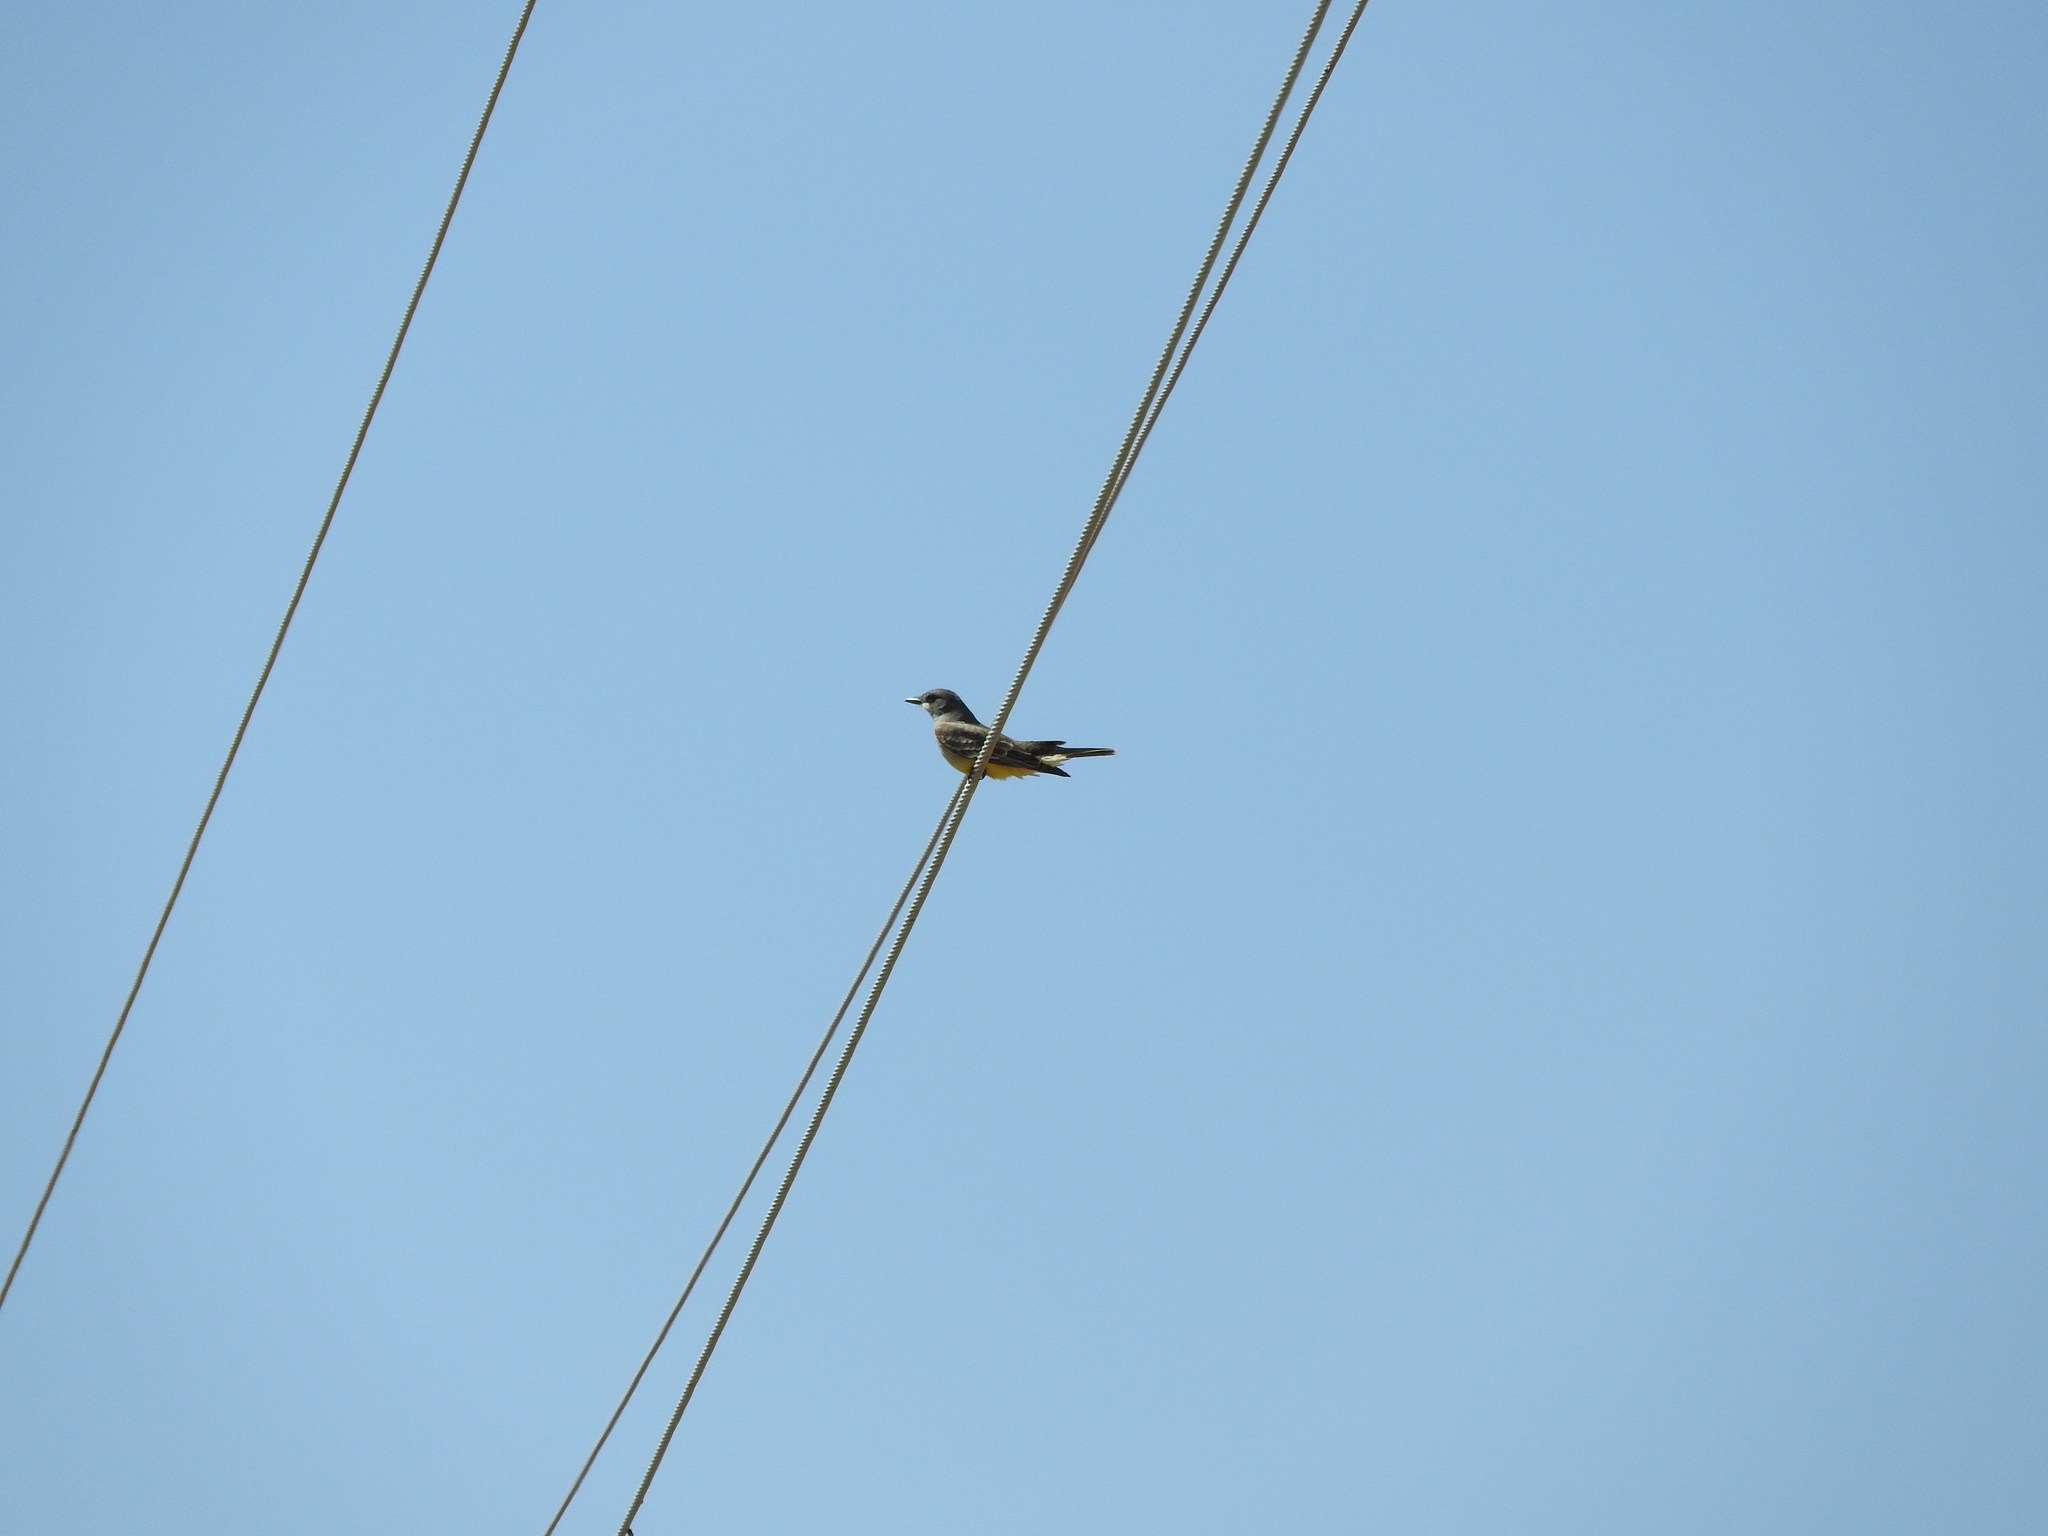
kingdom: Animalia
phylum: Chordata
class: Aves
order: Passeriformes
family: Tyrannidae
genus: Tyrannus
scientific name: Tyrannus vociferans
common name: Cassin's kingbird
